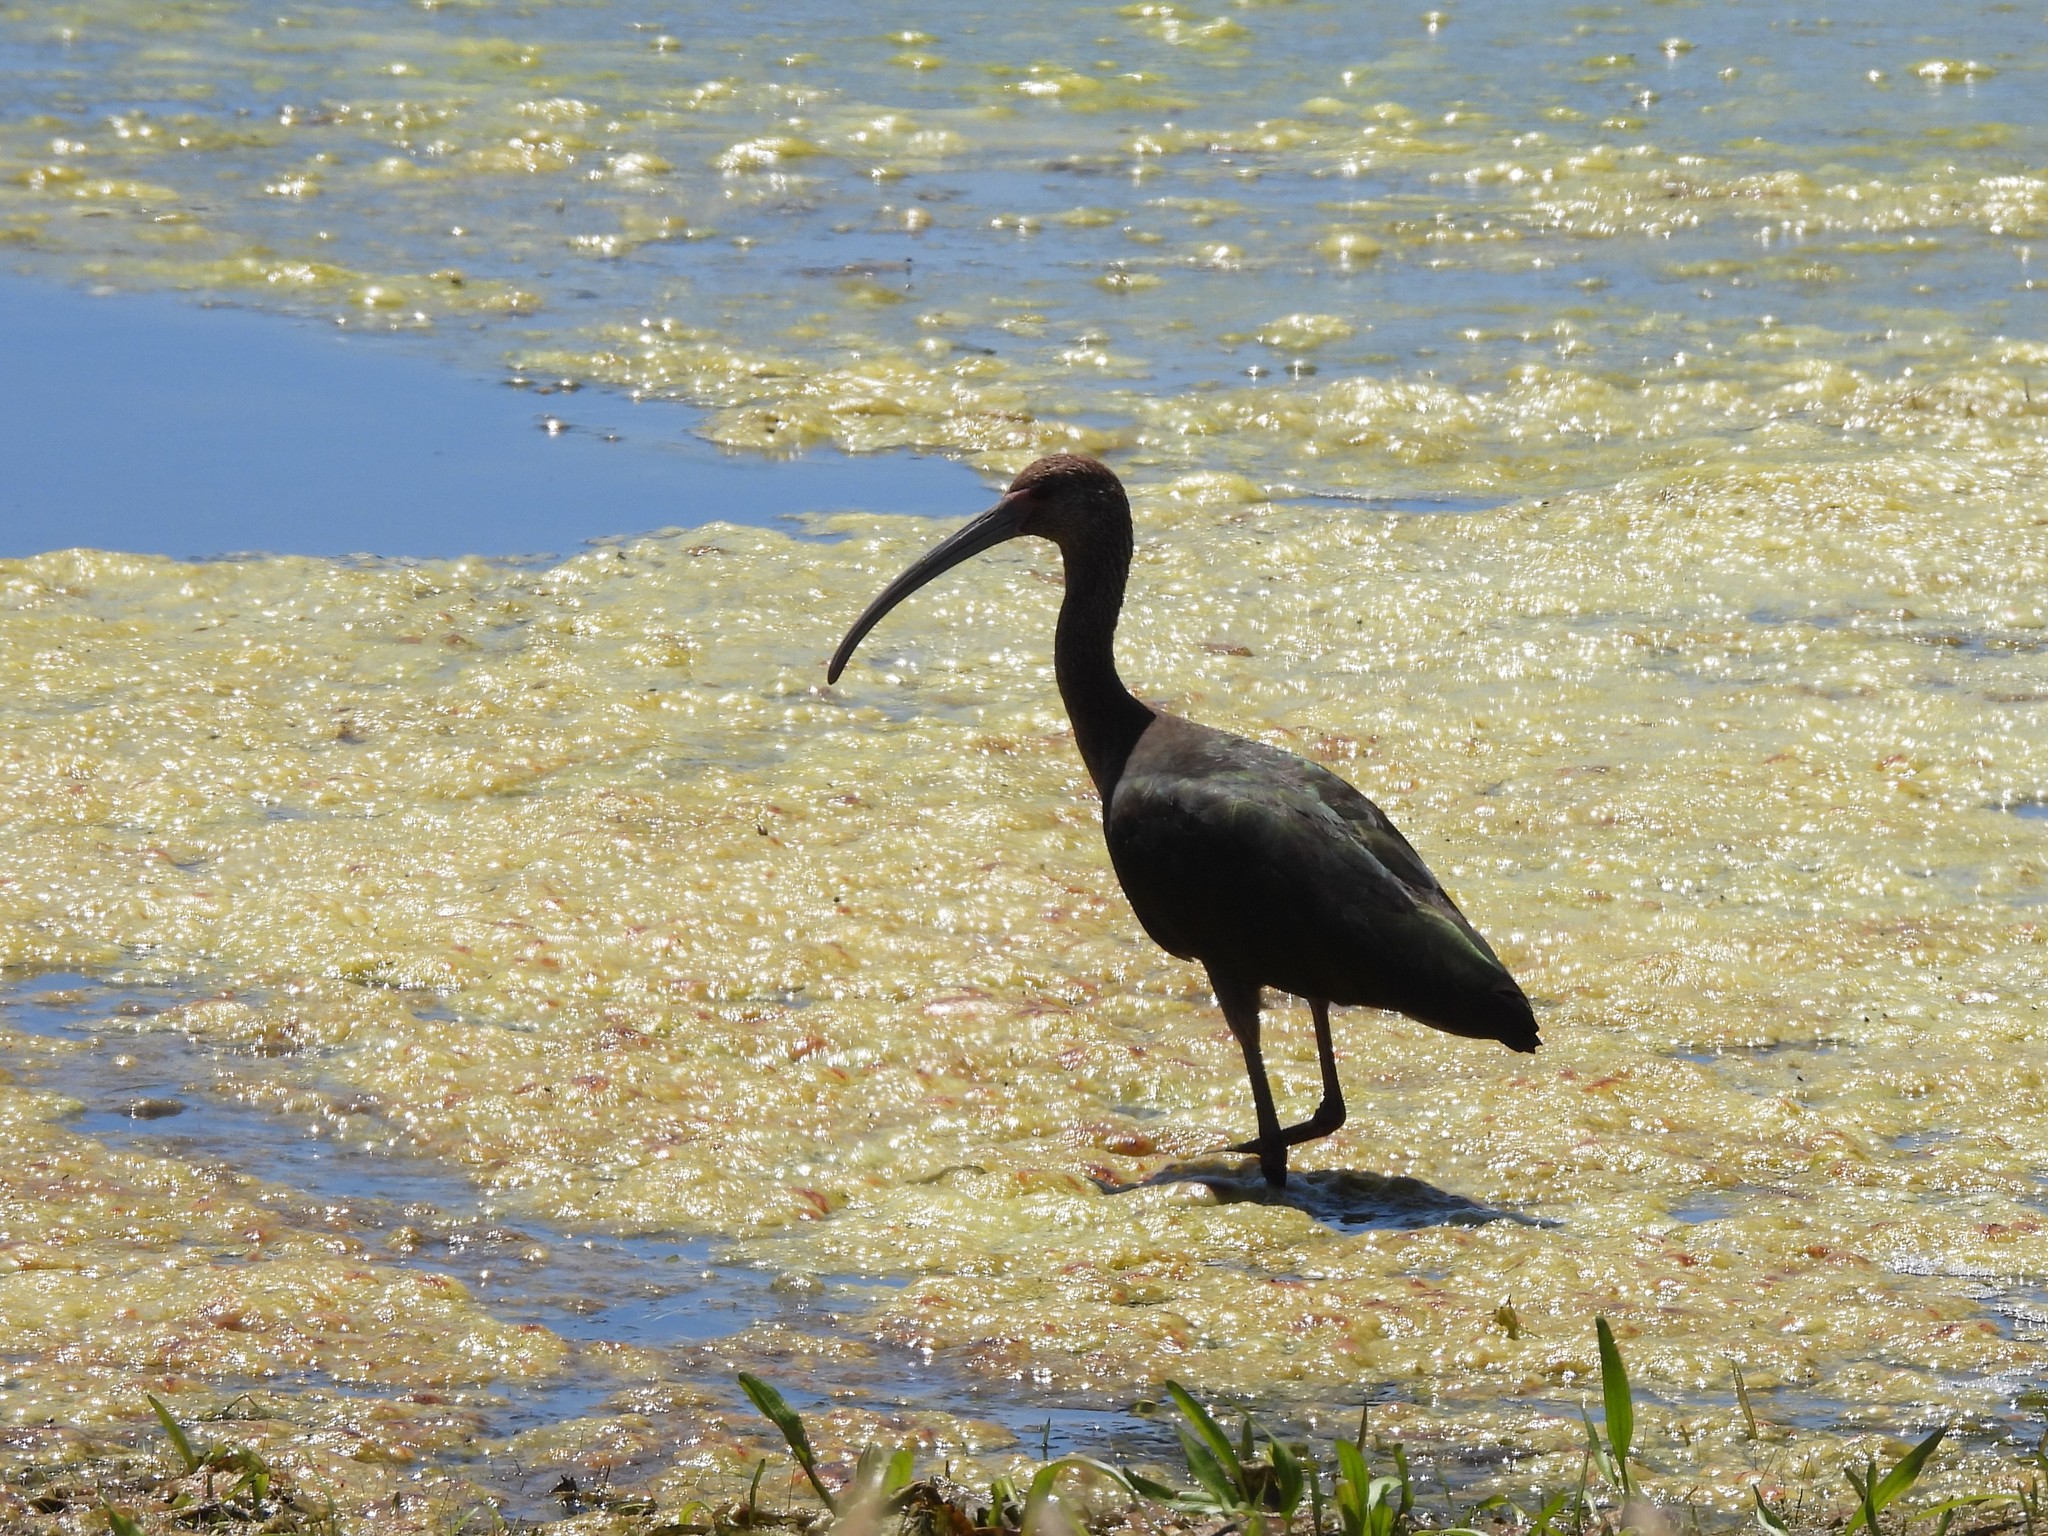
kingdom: Animalia
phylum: Chordata
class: Aves
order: Pelecaniformes
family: Threskiornithidae
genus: Plegadis
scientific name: Plegadis chihi
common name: White-faced ibis
